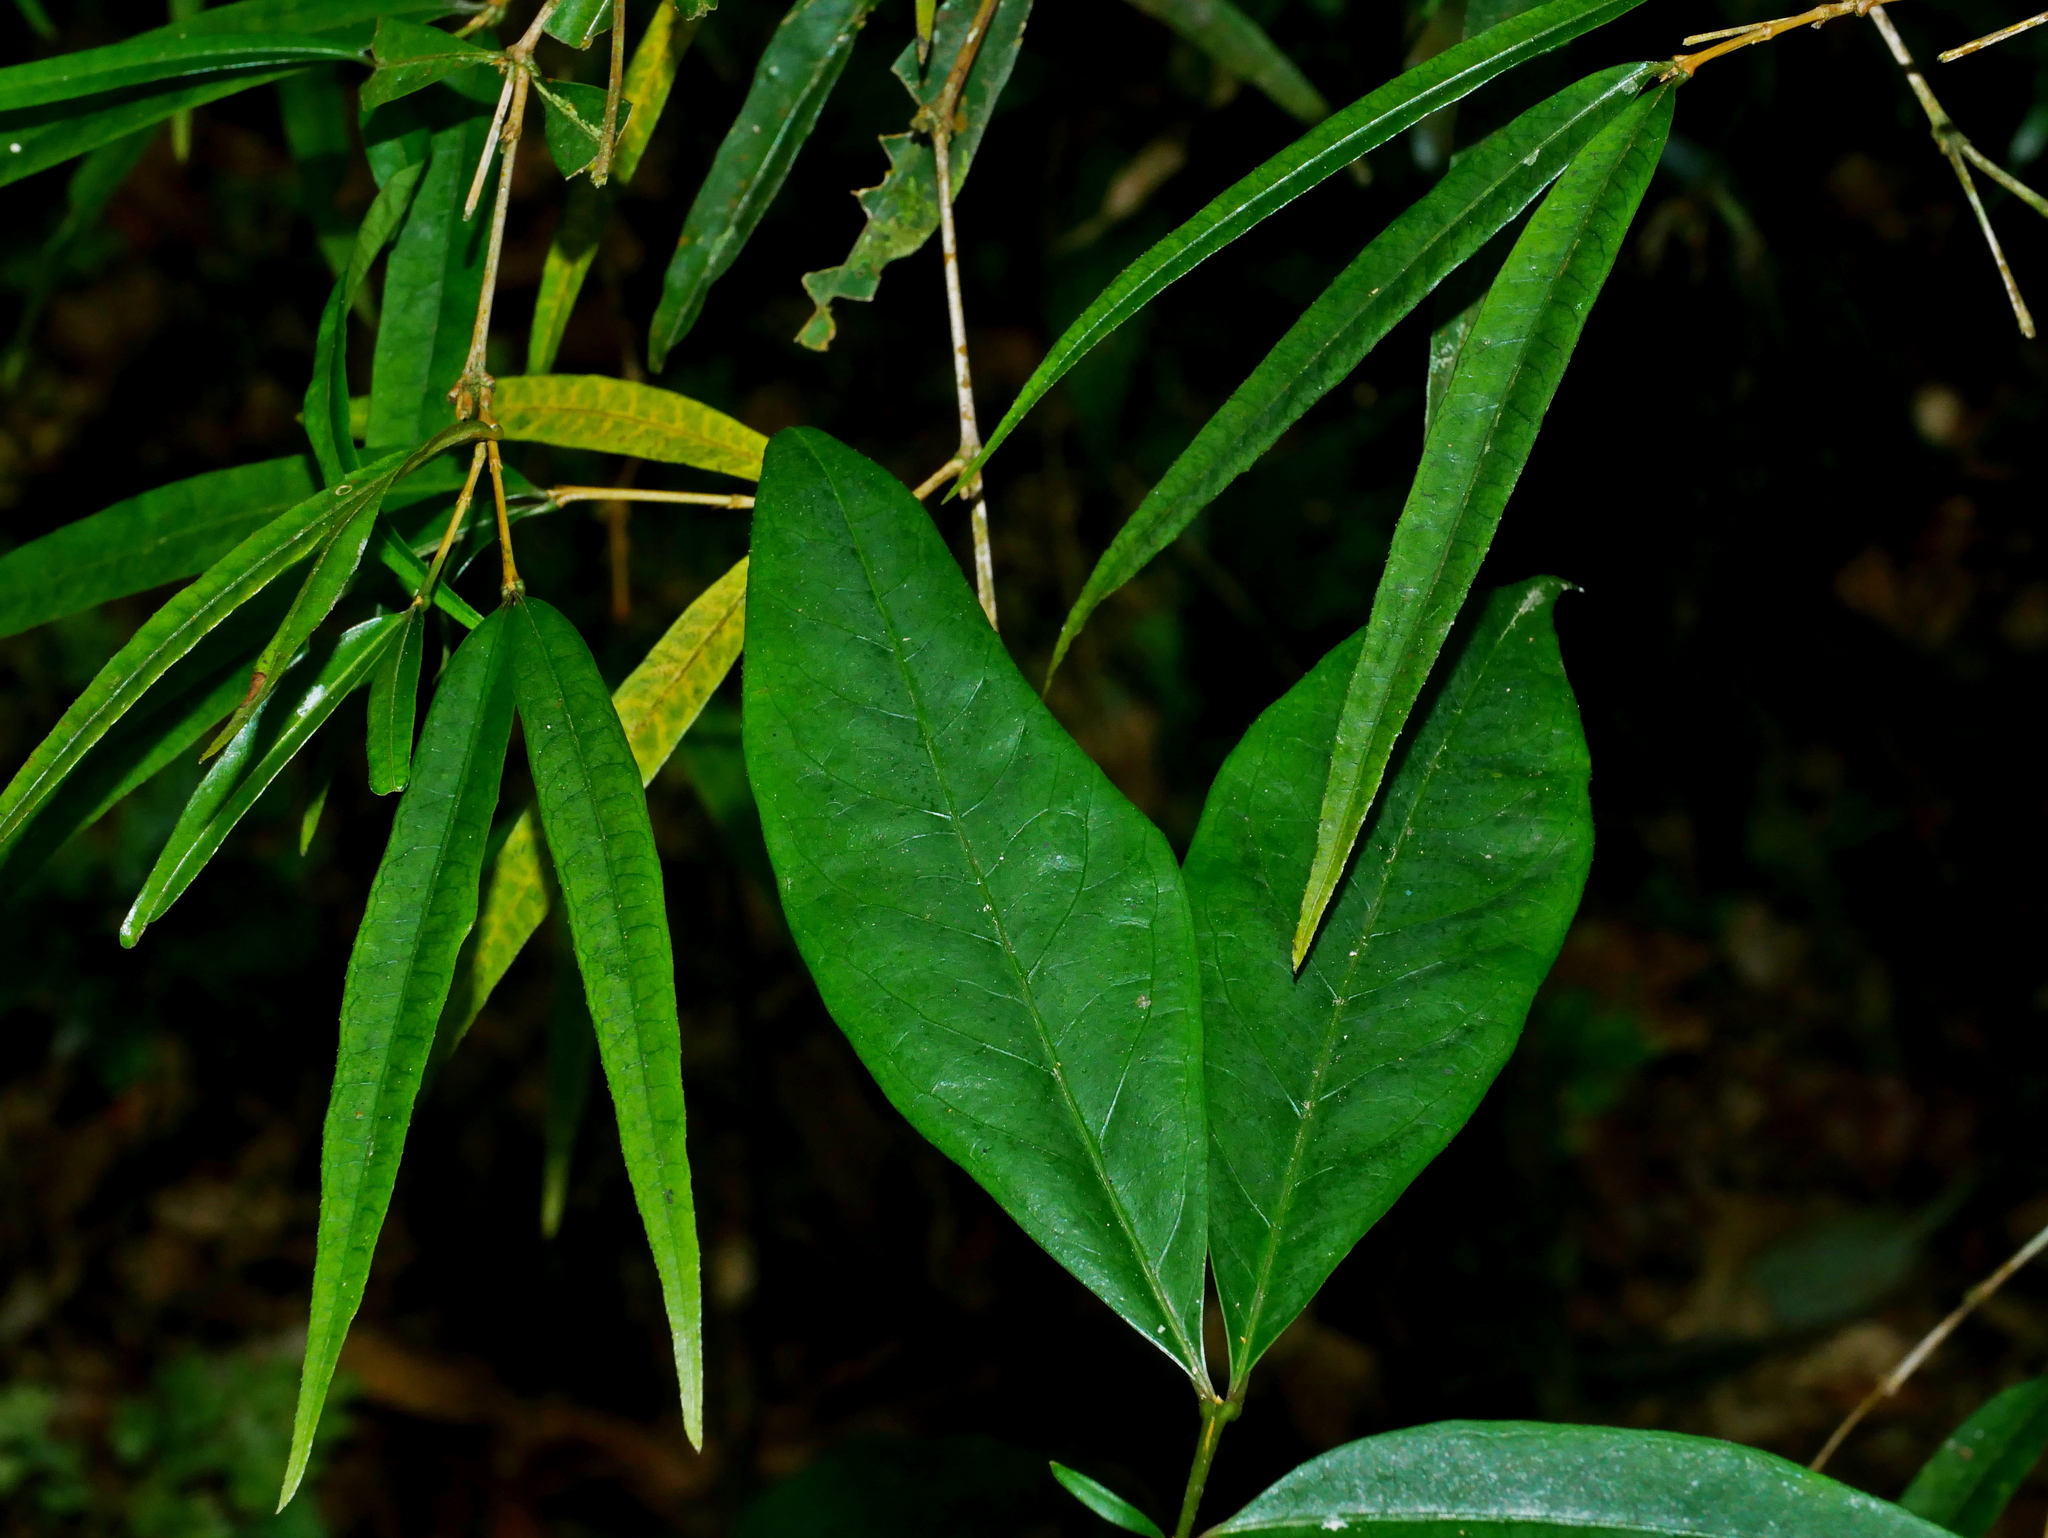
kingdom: Plantae
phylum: Tracheophyta
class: Magnoliopsida
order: Gentianales
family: Rubiaceae
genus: Damnacanthus
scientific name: Damnacanthus angustifolius
